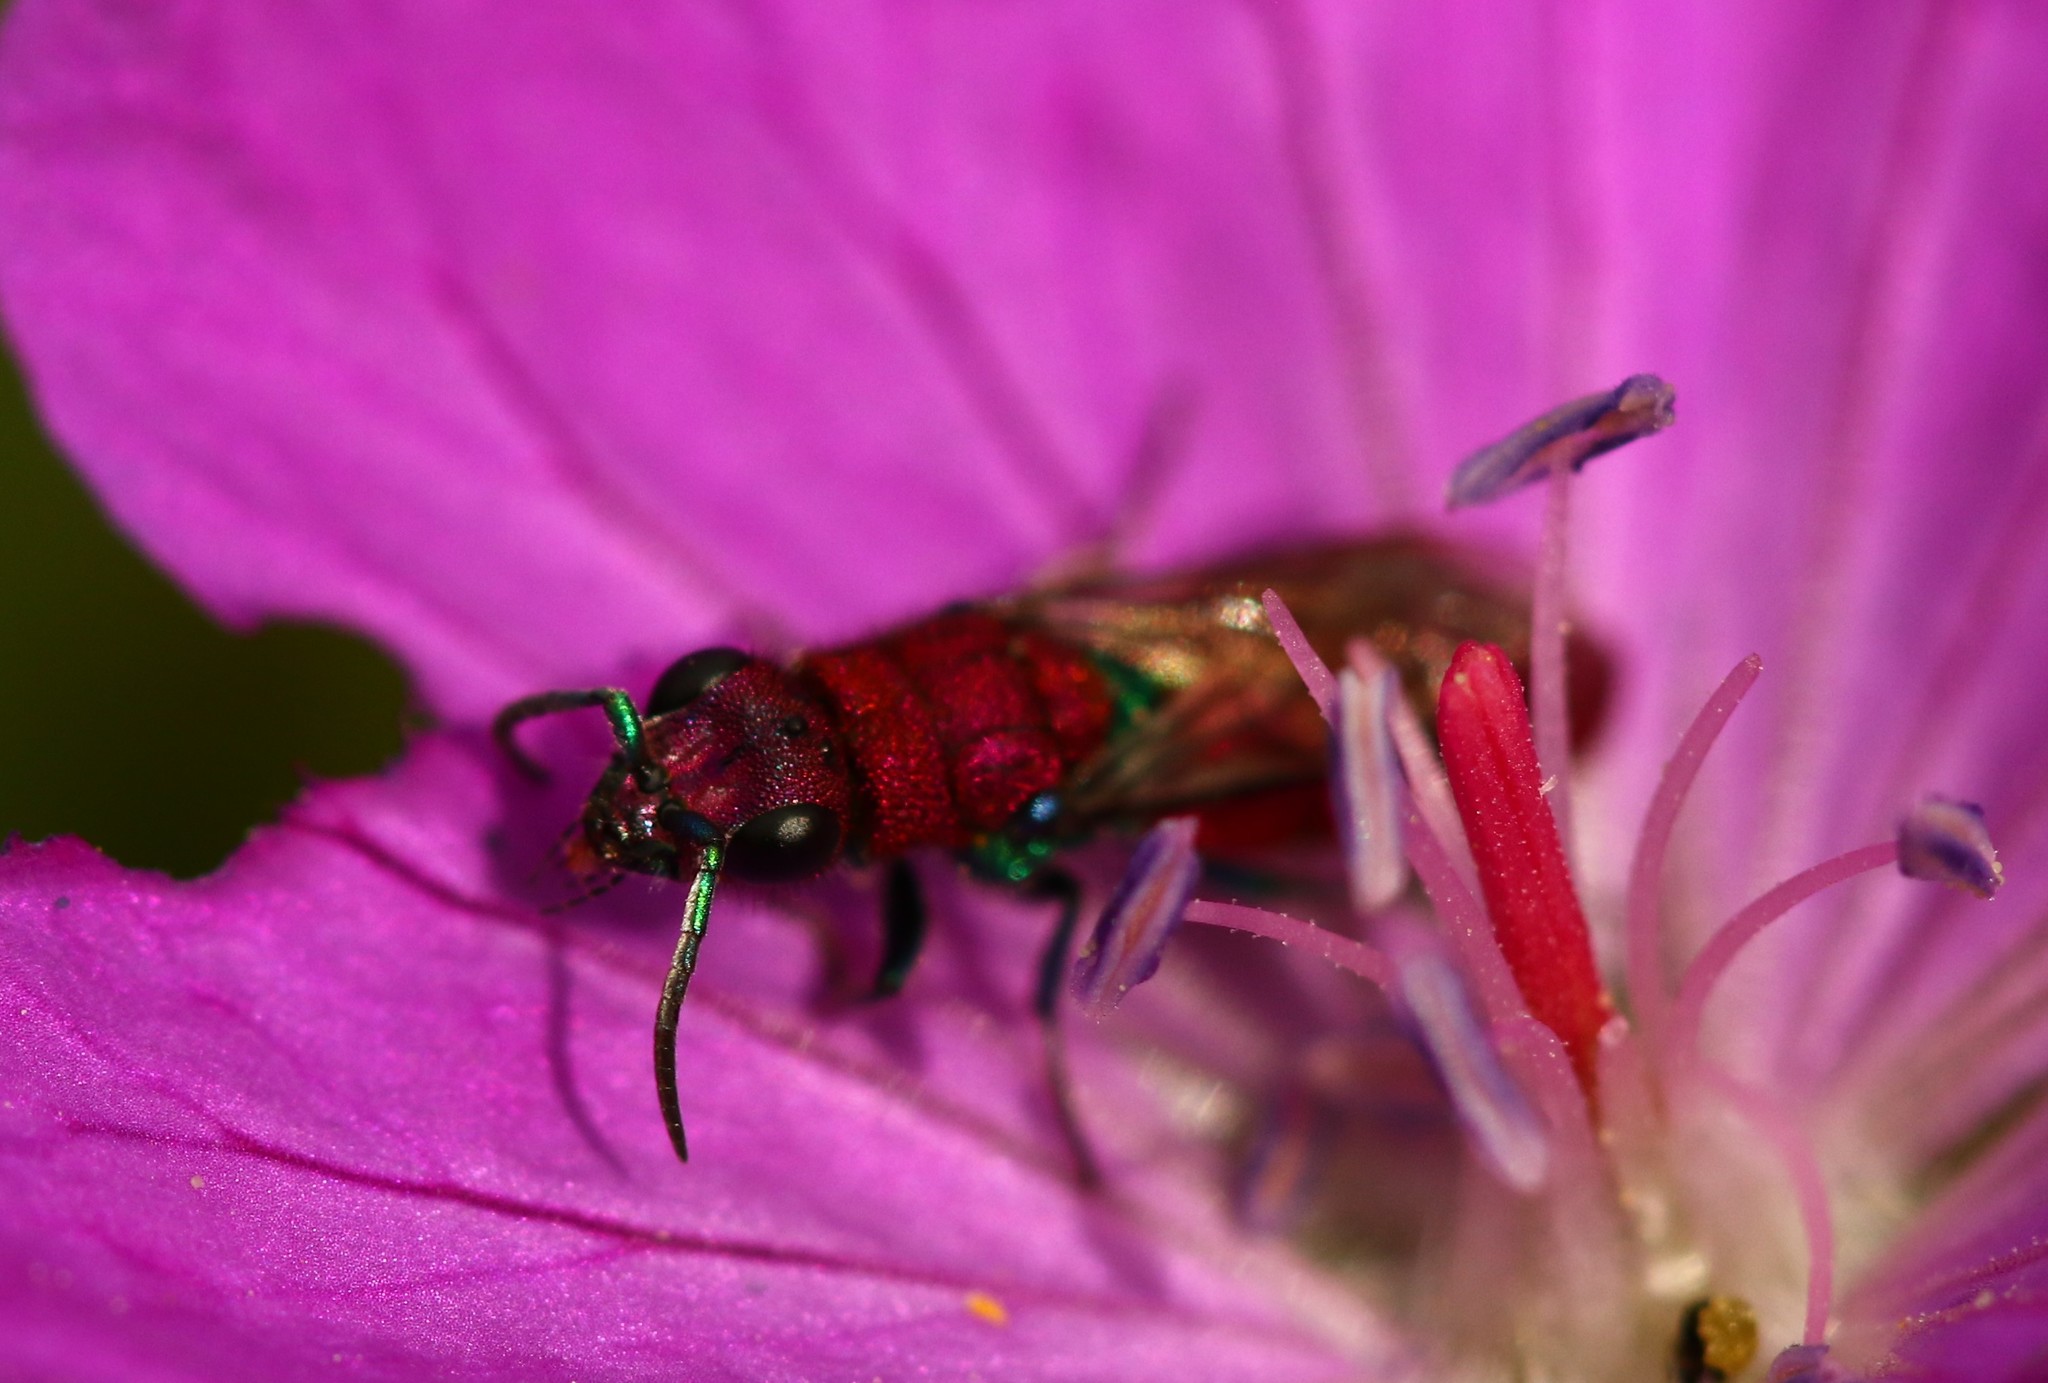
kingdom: Animalia
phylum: Arthropoda
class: Insecta
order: Hymenoptera
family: Chrysididae
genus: Chrysura
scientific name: Chrysura cuprea
